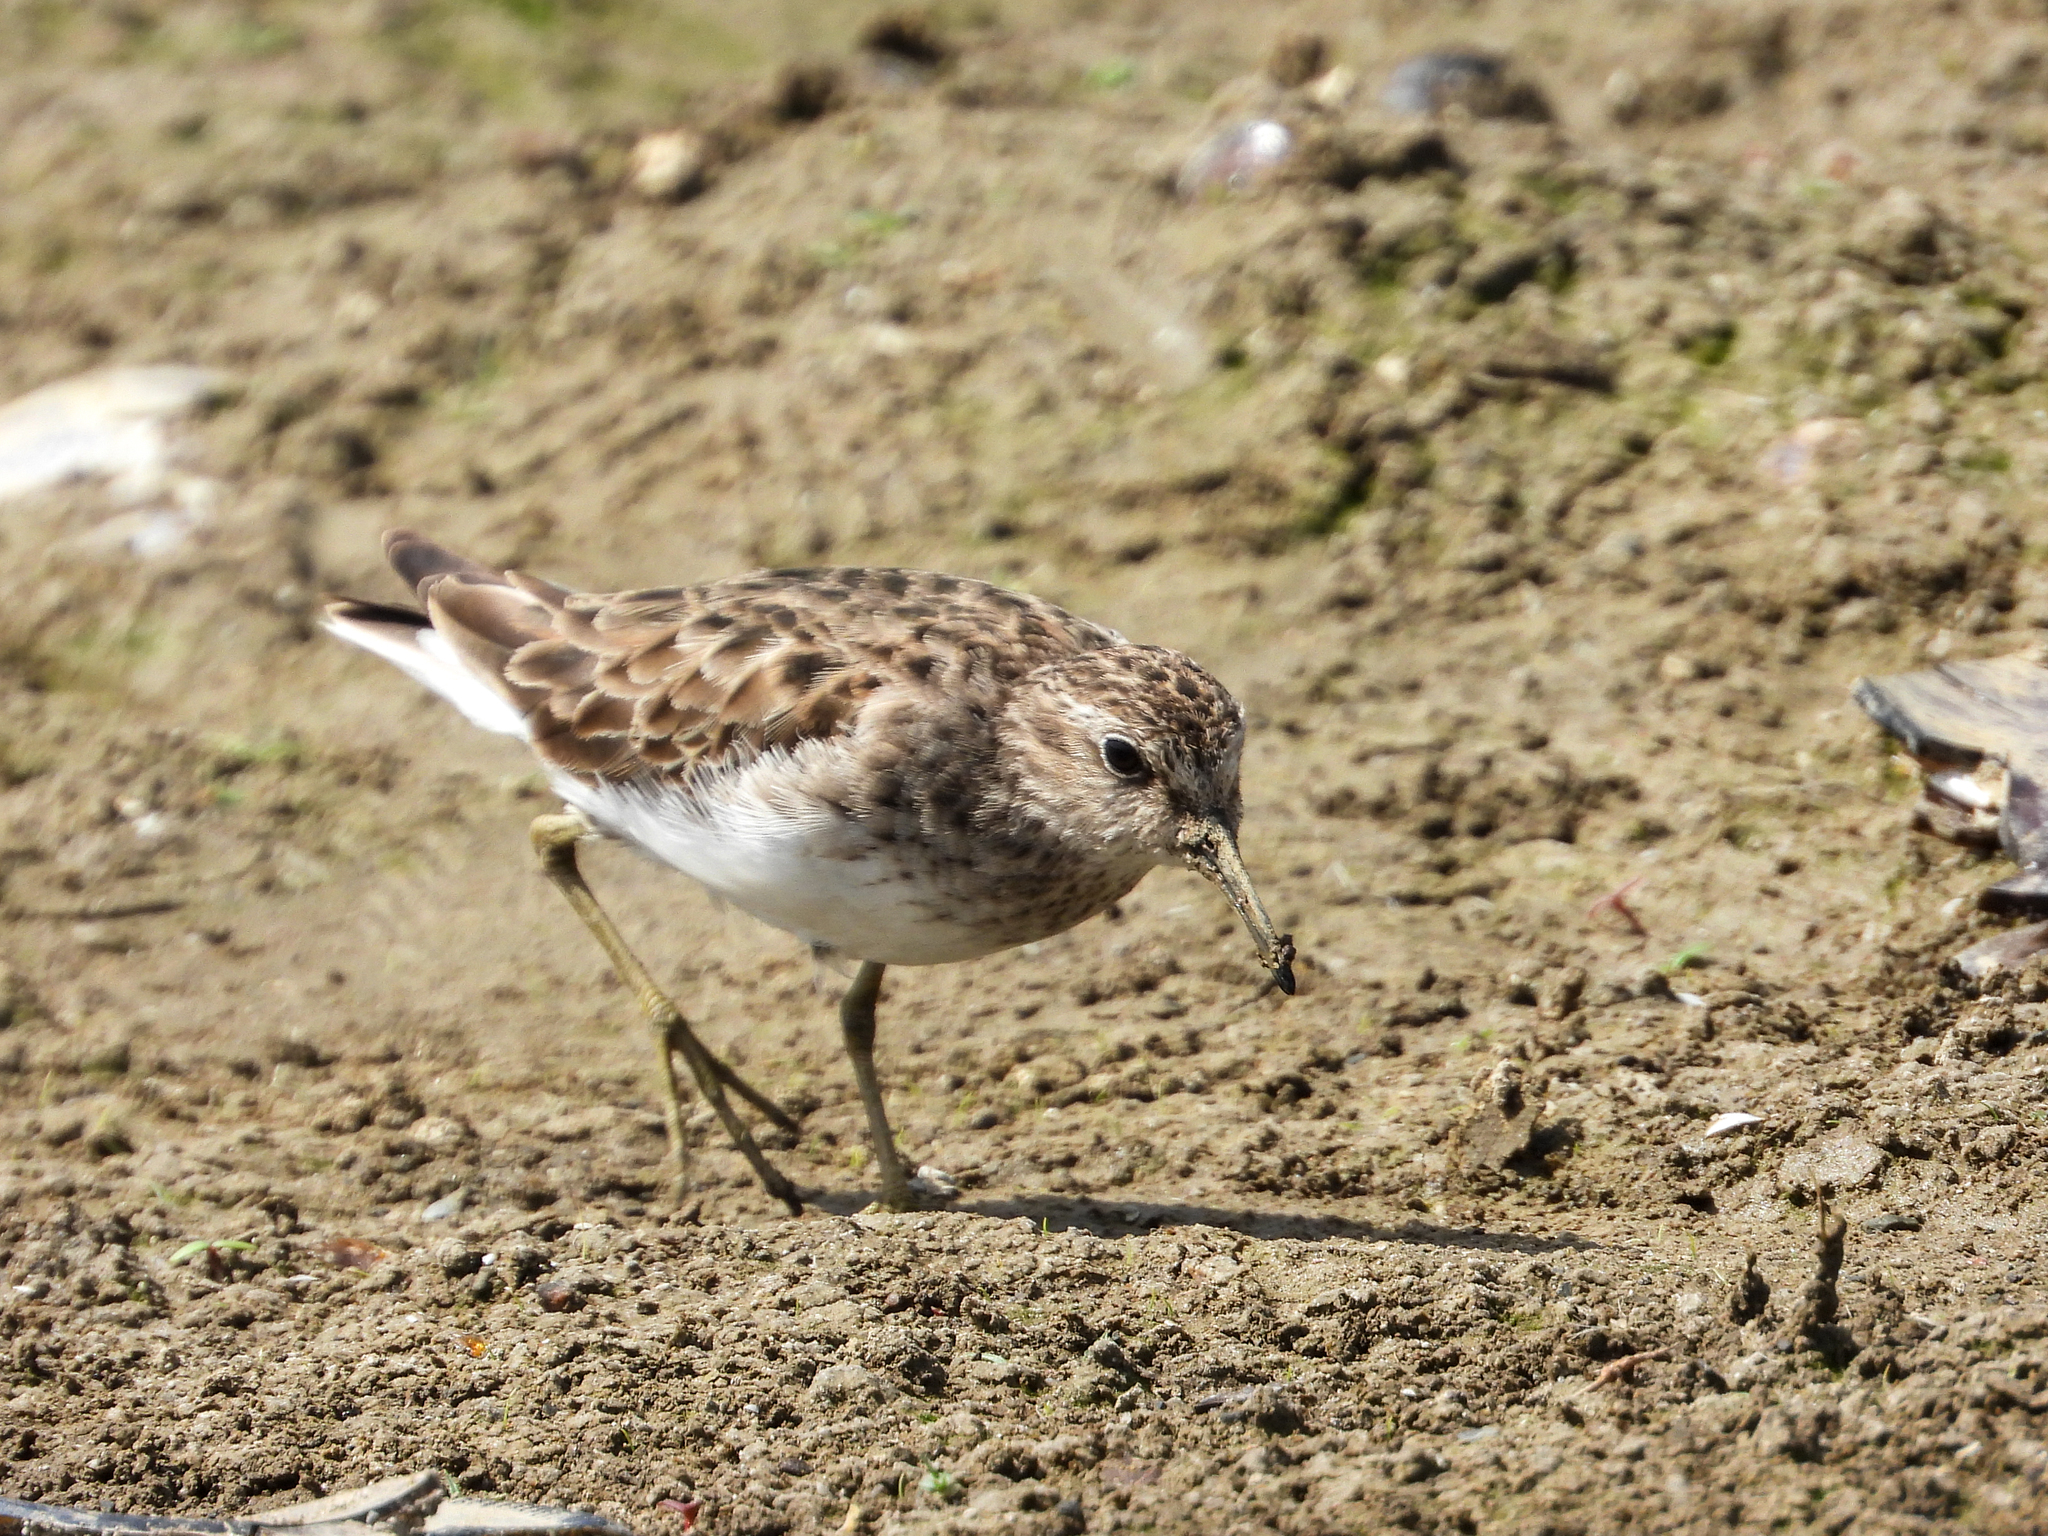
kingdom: Animalia
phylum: Chordata
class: Aves
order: Charadriiformes
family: Scolopacidae
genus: Calidris
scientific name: Calidris minutilla
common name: Least sandpiper
